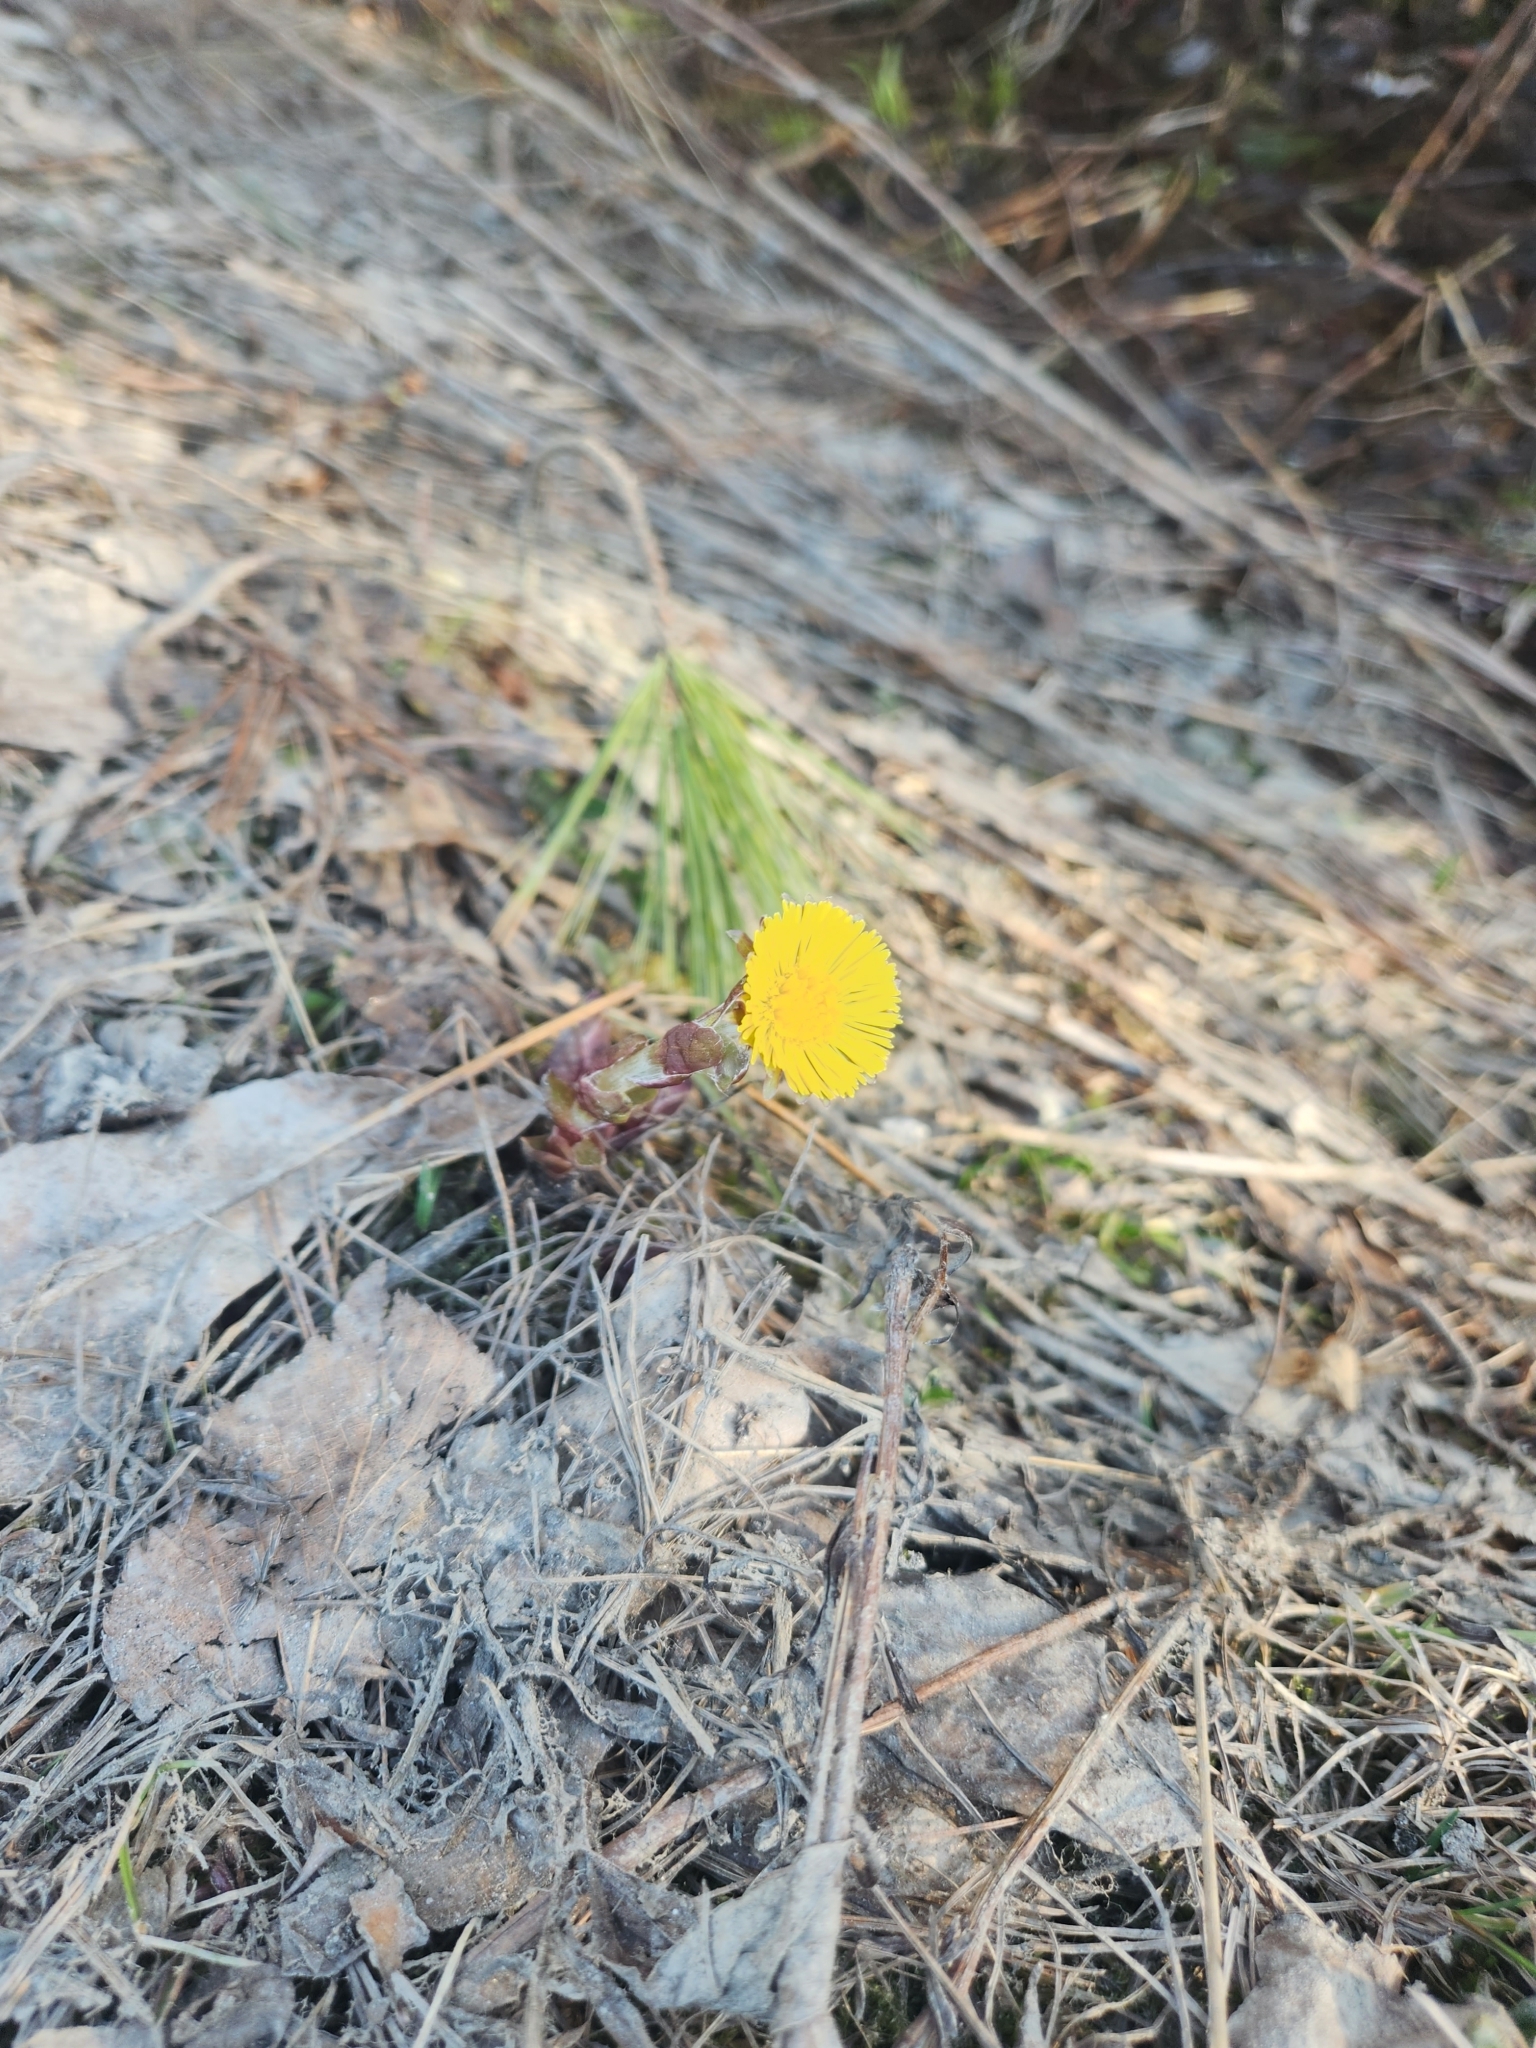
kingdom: Plantae
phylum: Tracheophyta
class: Magnoliopsida
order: Asterales
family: Asteraceae
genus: Tussilago
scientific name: Tussilago farfara
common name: Coltsfoot
